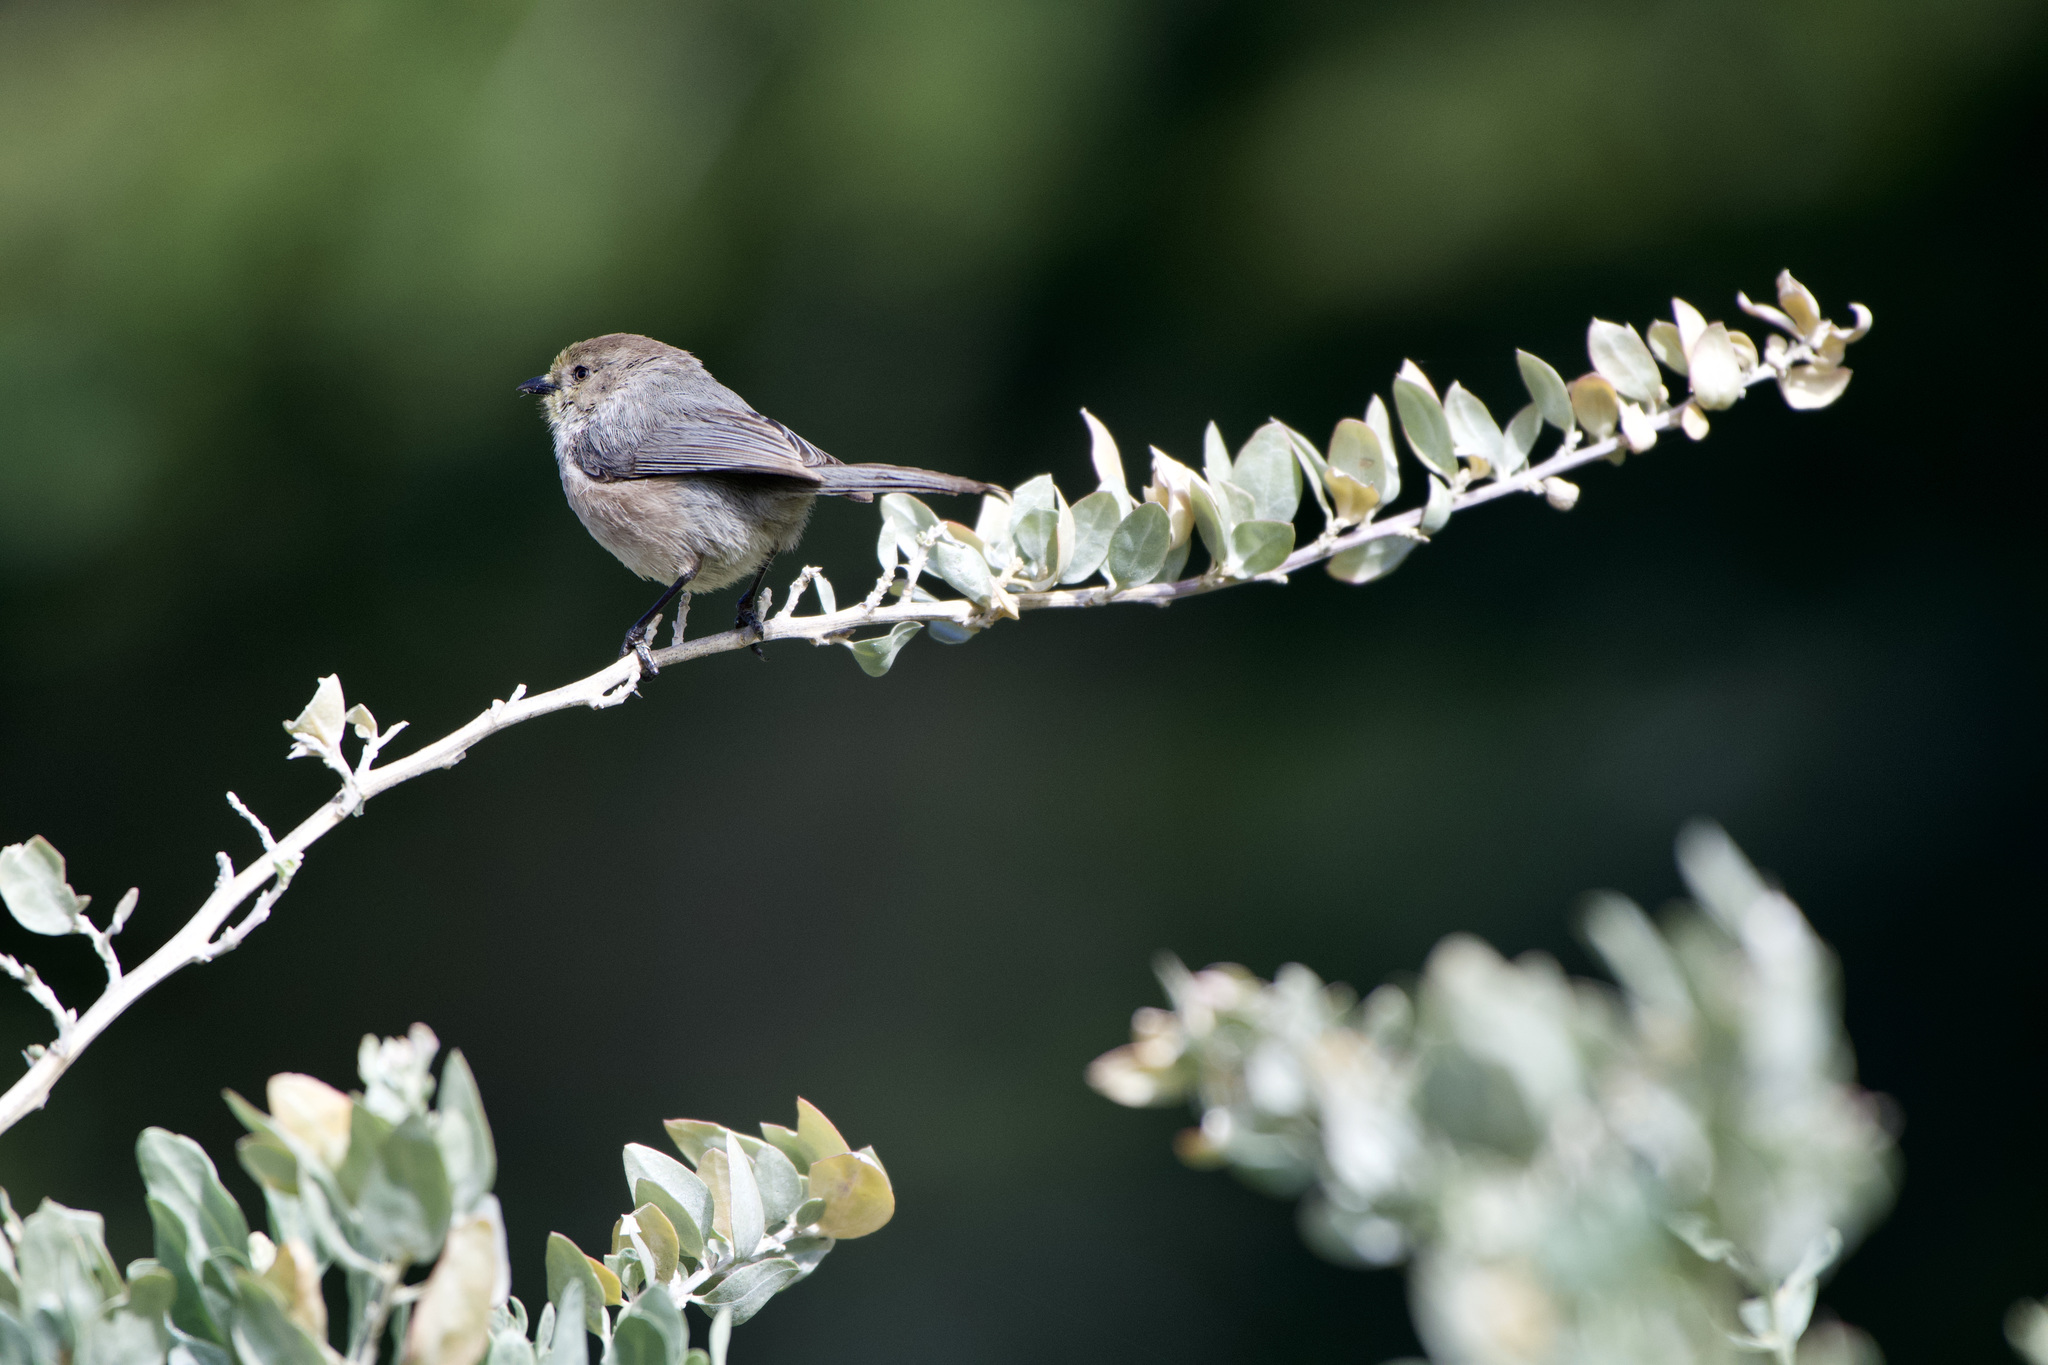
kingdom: Animalia
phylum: Chordata
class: Aves
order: Passeriformes
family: Aegithalidae
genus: Psaltriparus
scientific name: Psaltriparus minimus
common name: American bushtit
